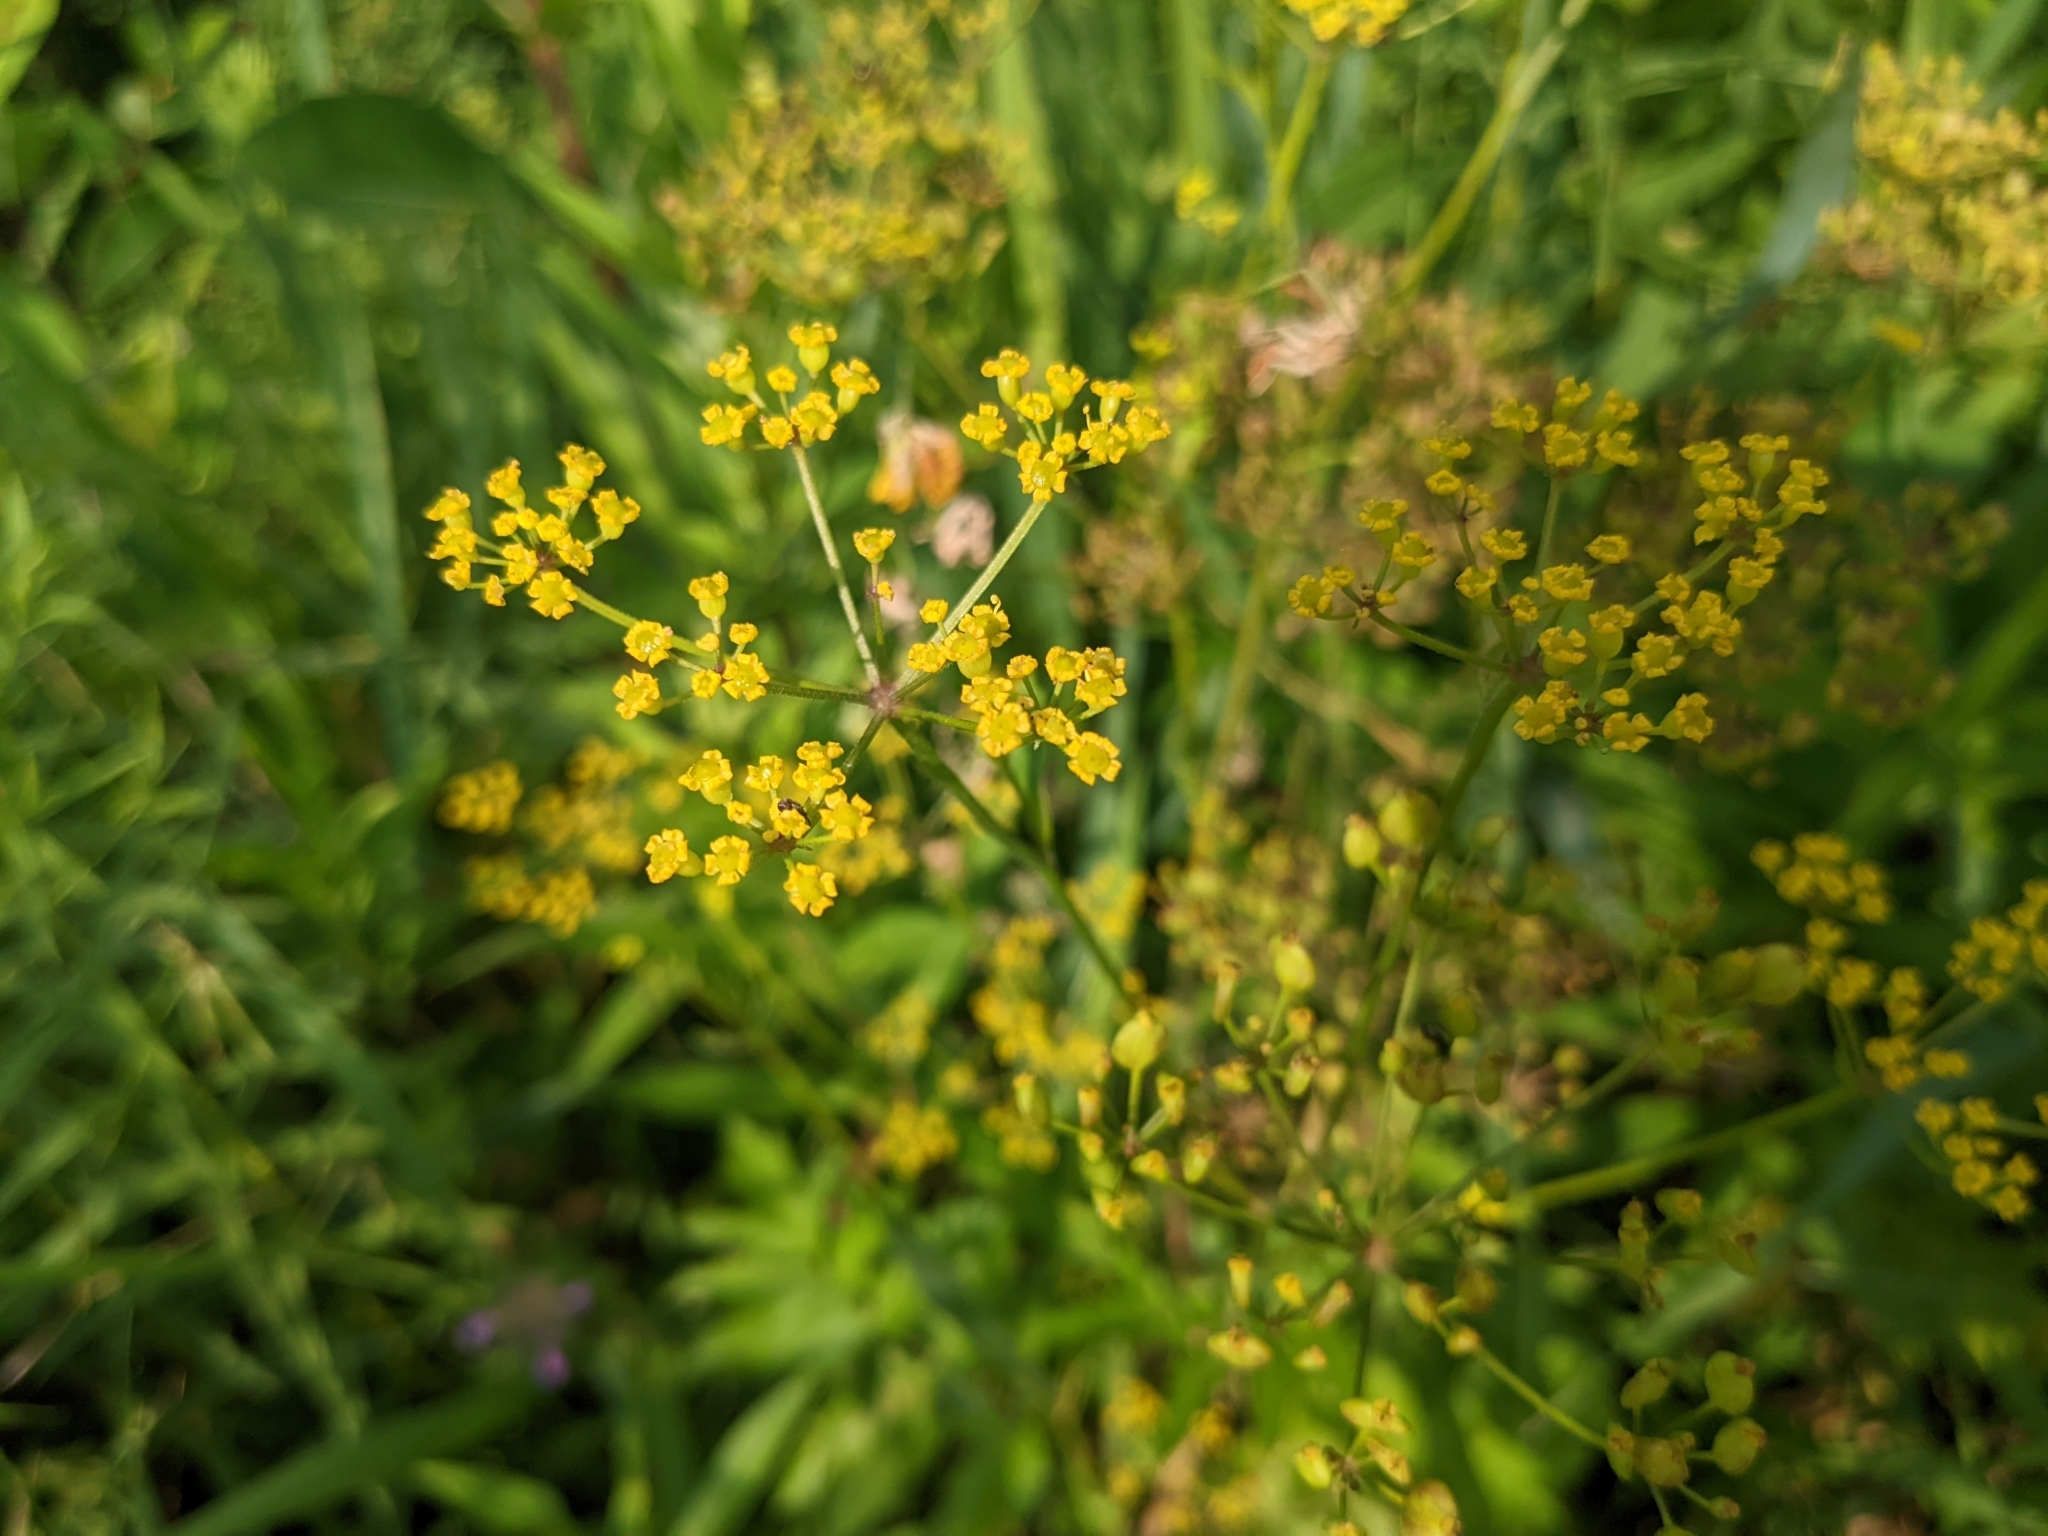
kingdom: Plantae
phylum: Tracheophyta
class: Magnoliopsida
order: Apiales
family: Apiaceae
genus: Pastinaca
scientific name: Pastinaca sativa
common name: Wild parsnip
